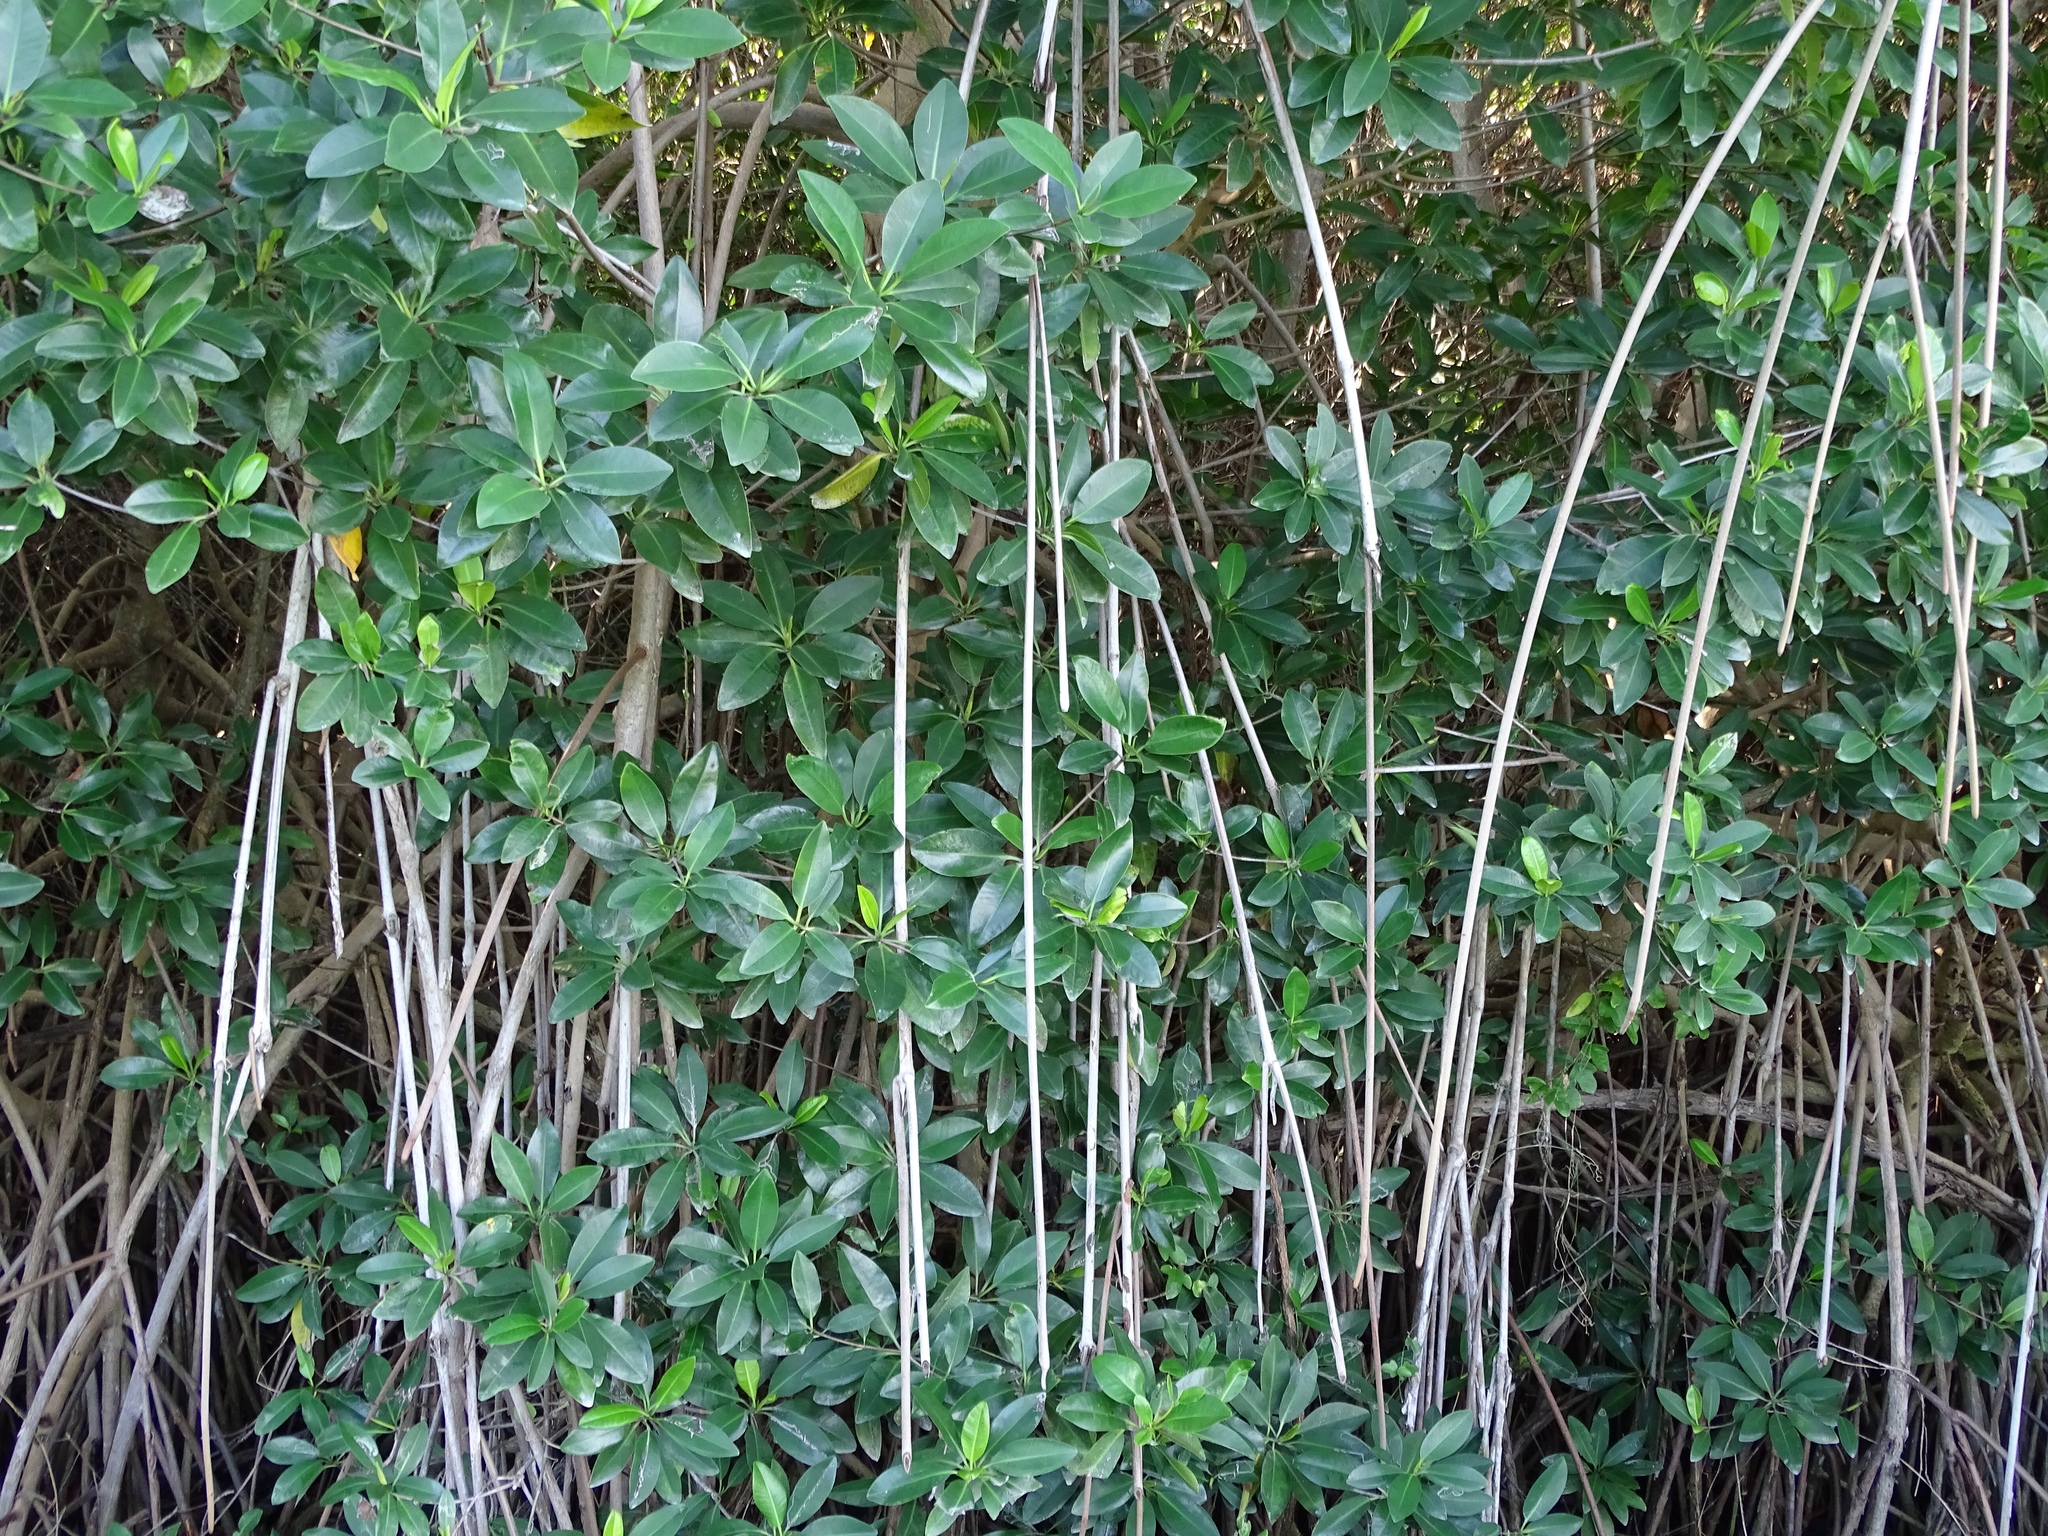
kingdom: Plantae
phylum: Tracheophyta
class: Magnoliopsida
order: Malpighiales
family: Rhizophoraceae
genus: Rhizophora
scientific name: Rhizophora mangle
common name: Red mangrove
